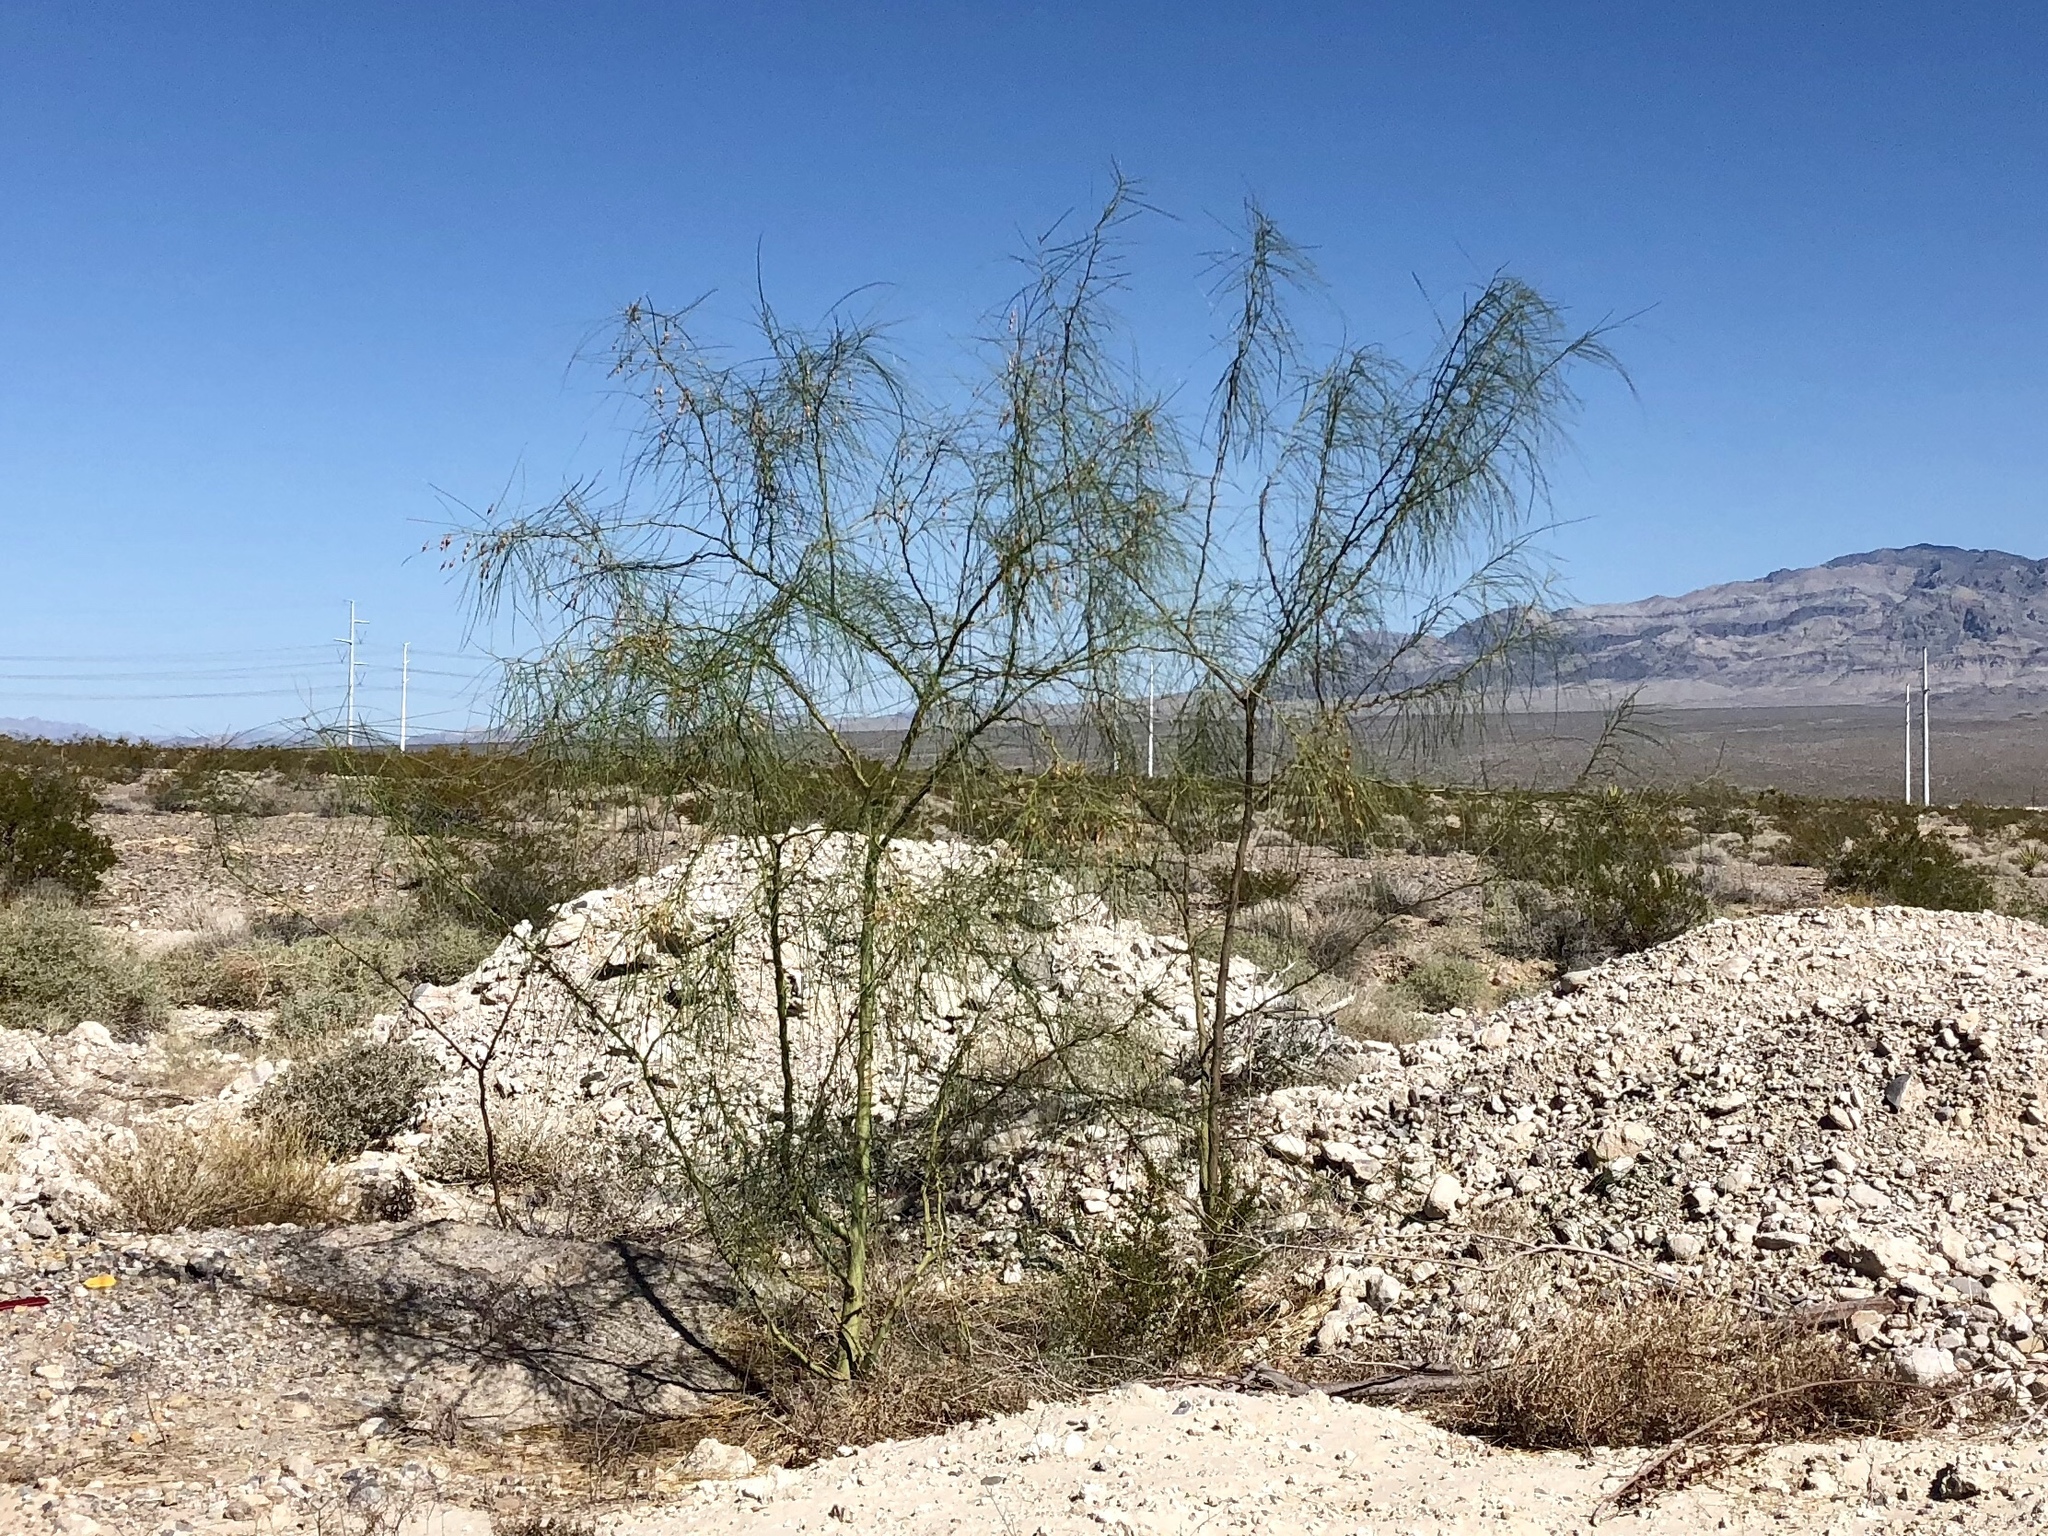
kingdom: Plantae
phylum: Tracheophyta
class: Magnoliopsida
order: Fabales
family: Fabaceae
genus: Parkinsonia
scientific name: Parkinsonia aculeata
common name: Jerusalem thorn
